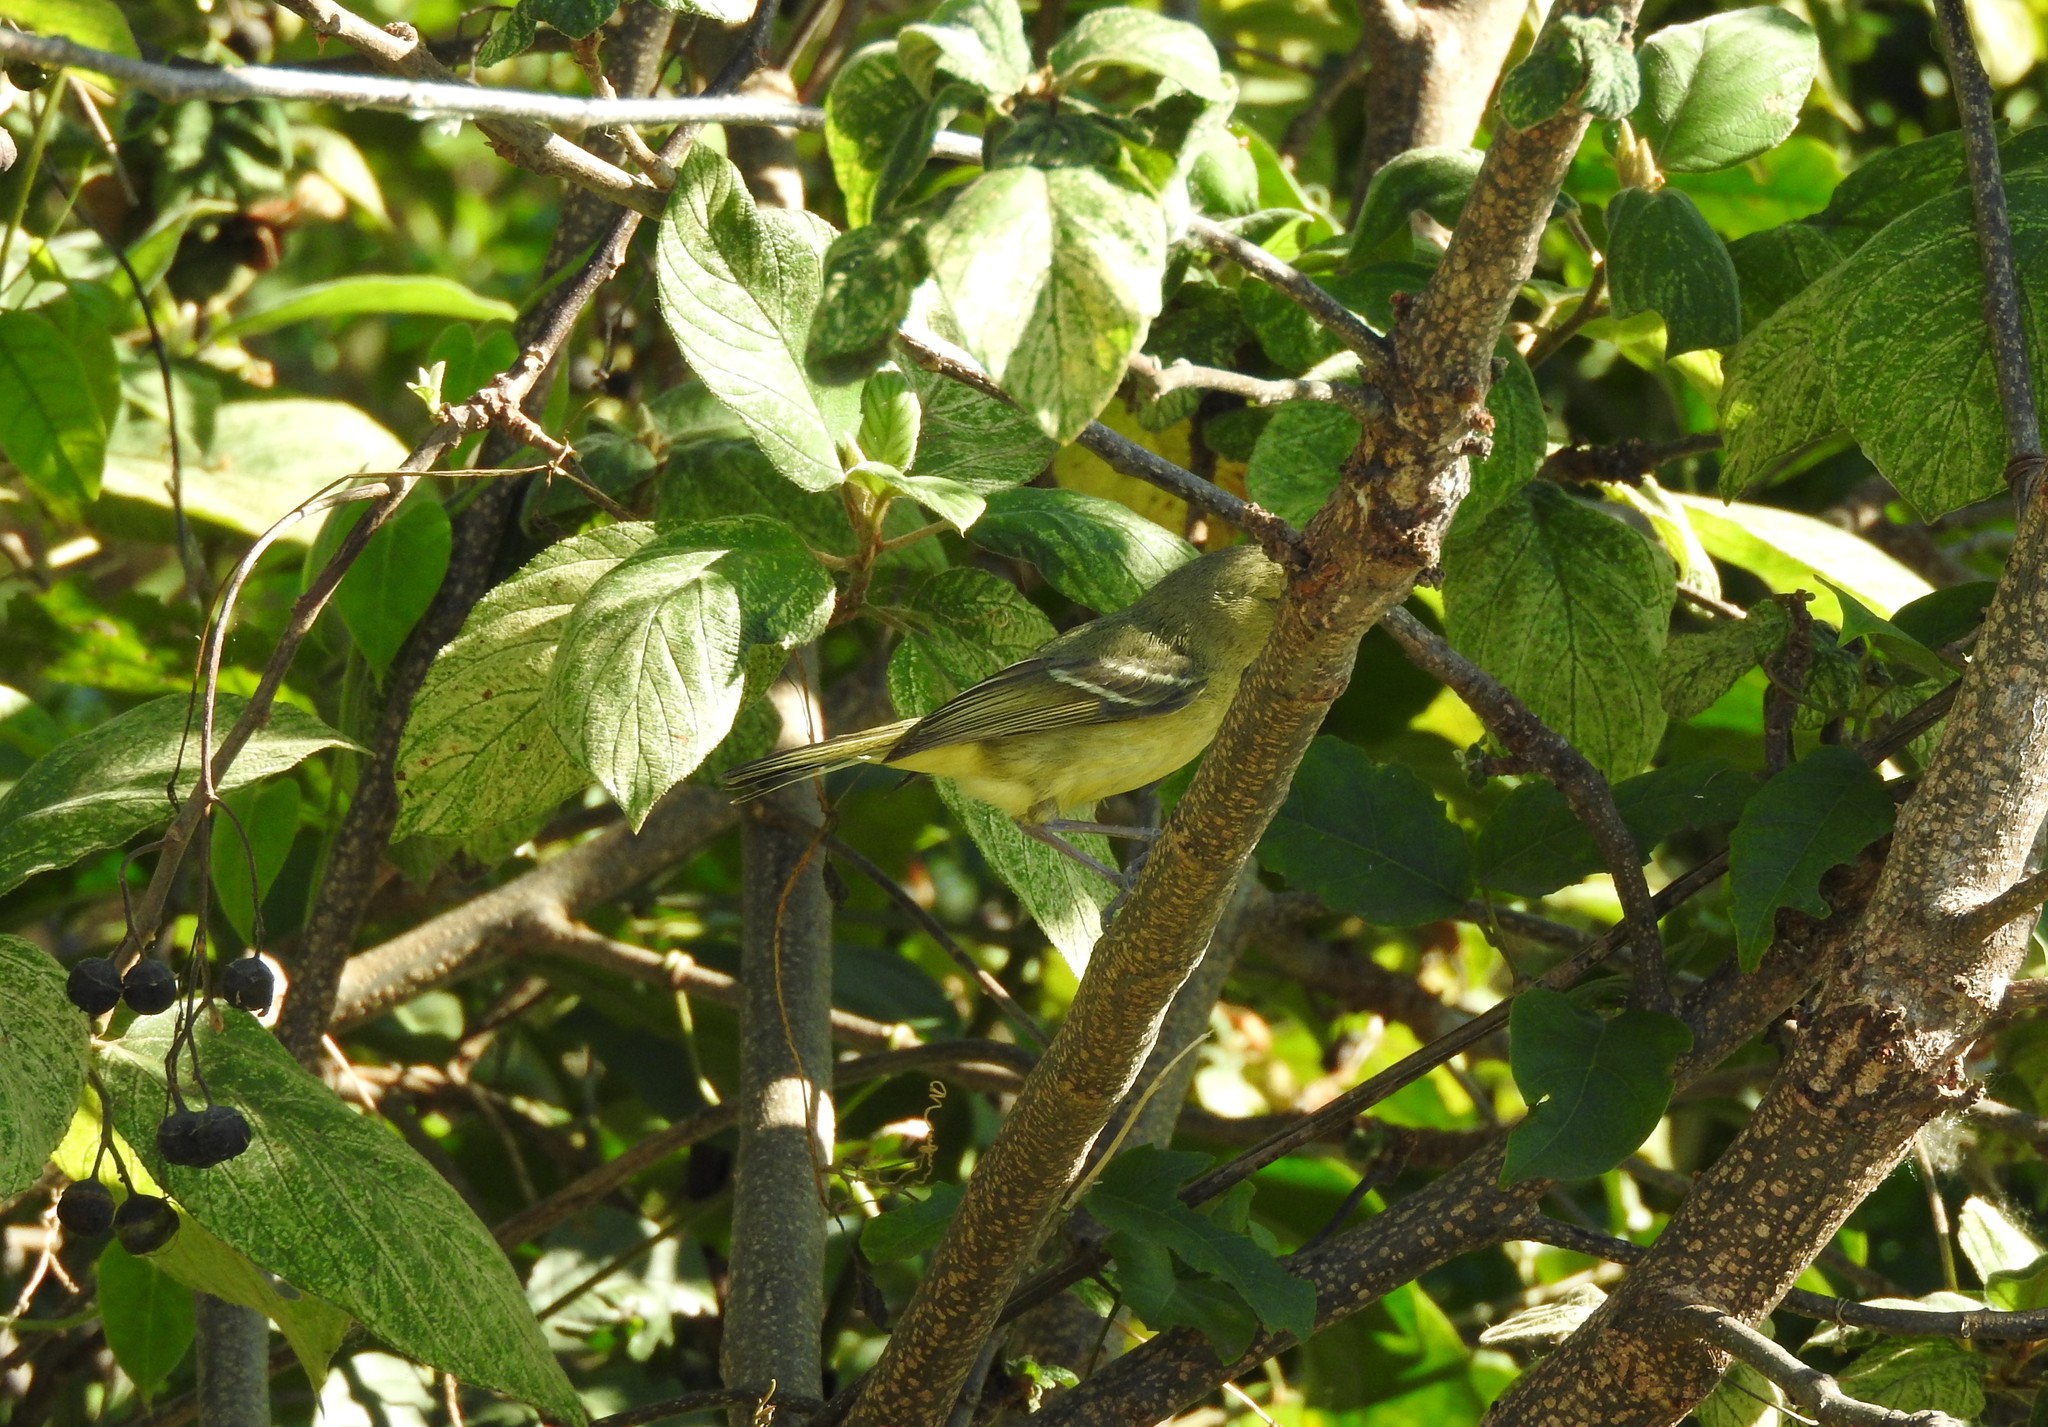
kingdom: Animalia
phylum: Chordata
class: Aves
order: Passeriformes
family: Vireonidae
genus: Vireo
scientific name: Vireo pallens
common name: Mangrove vireo
